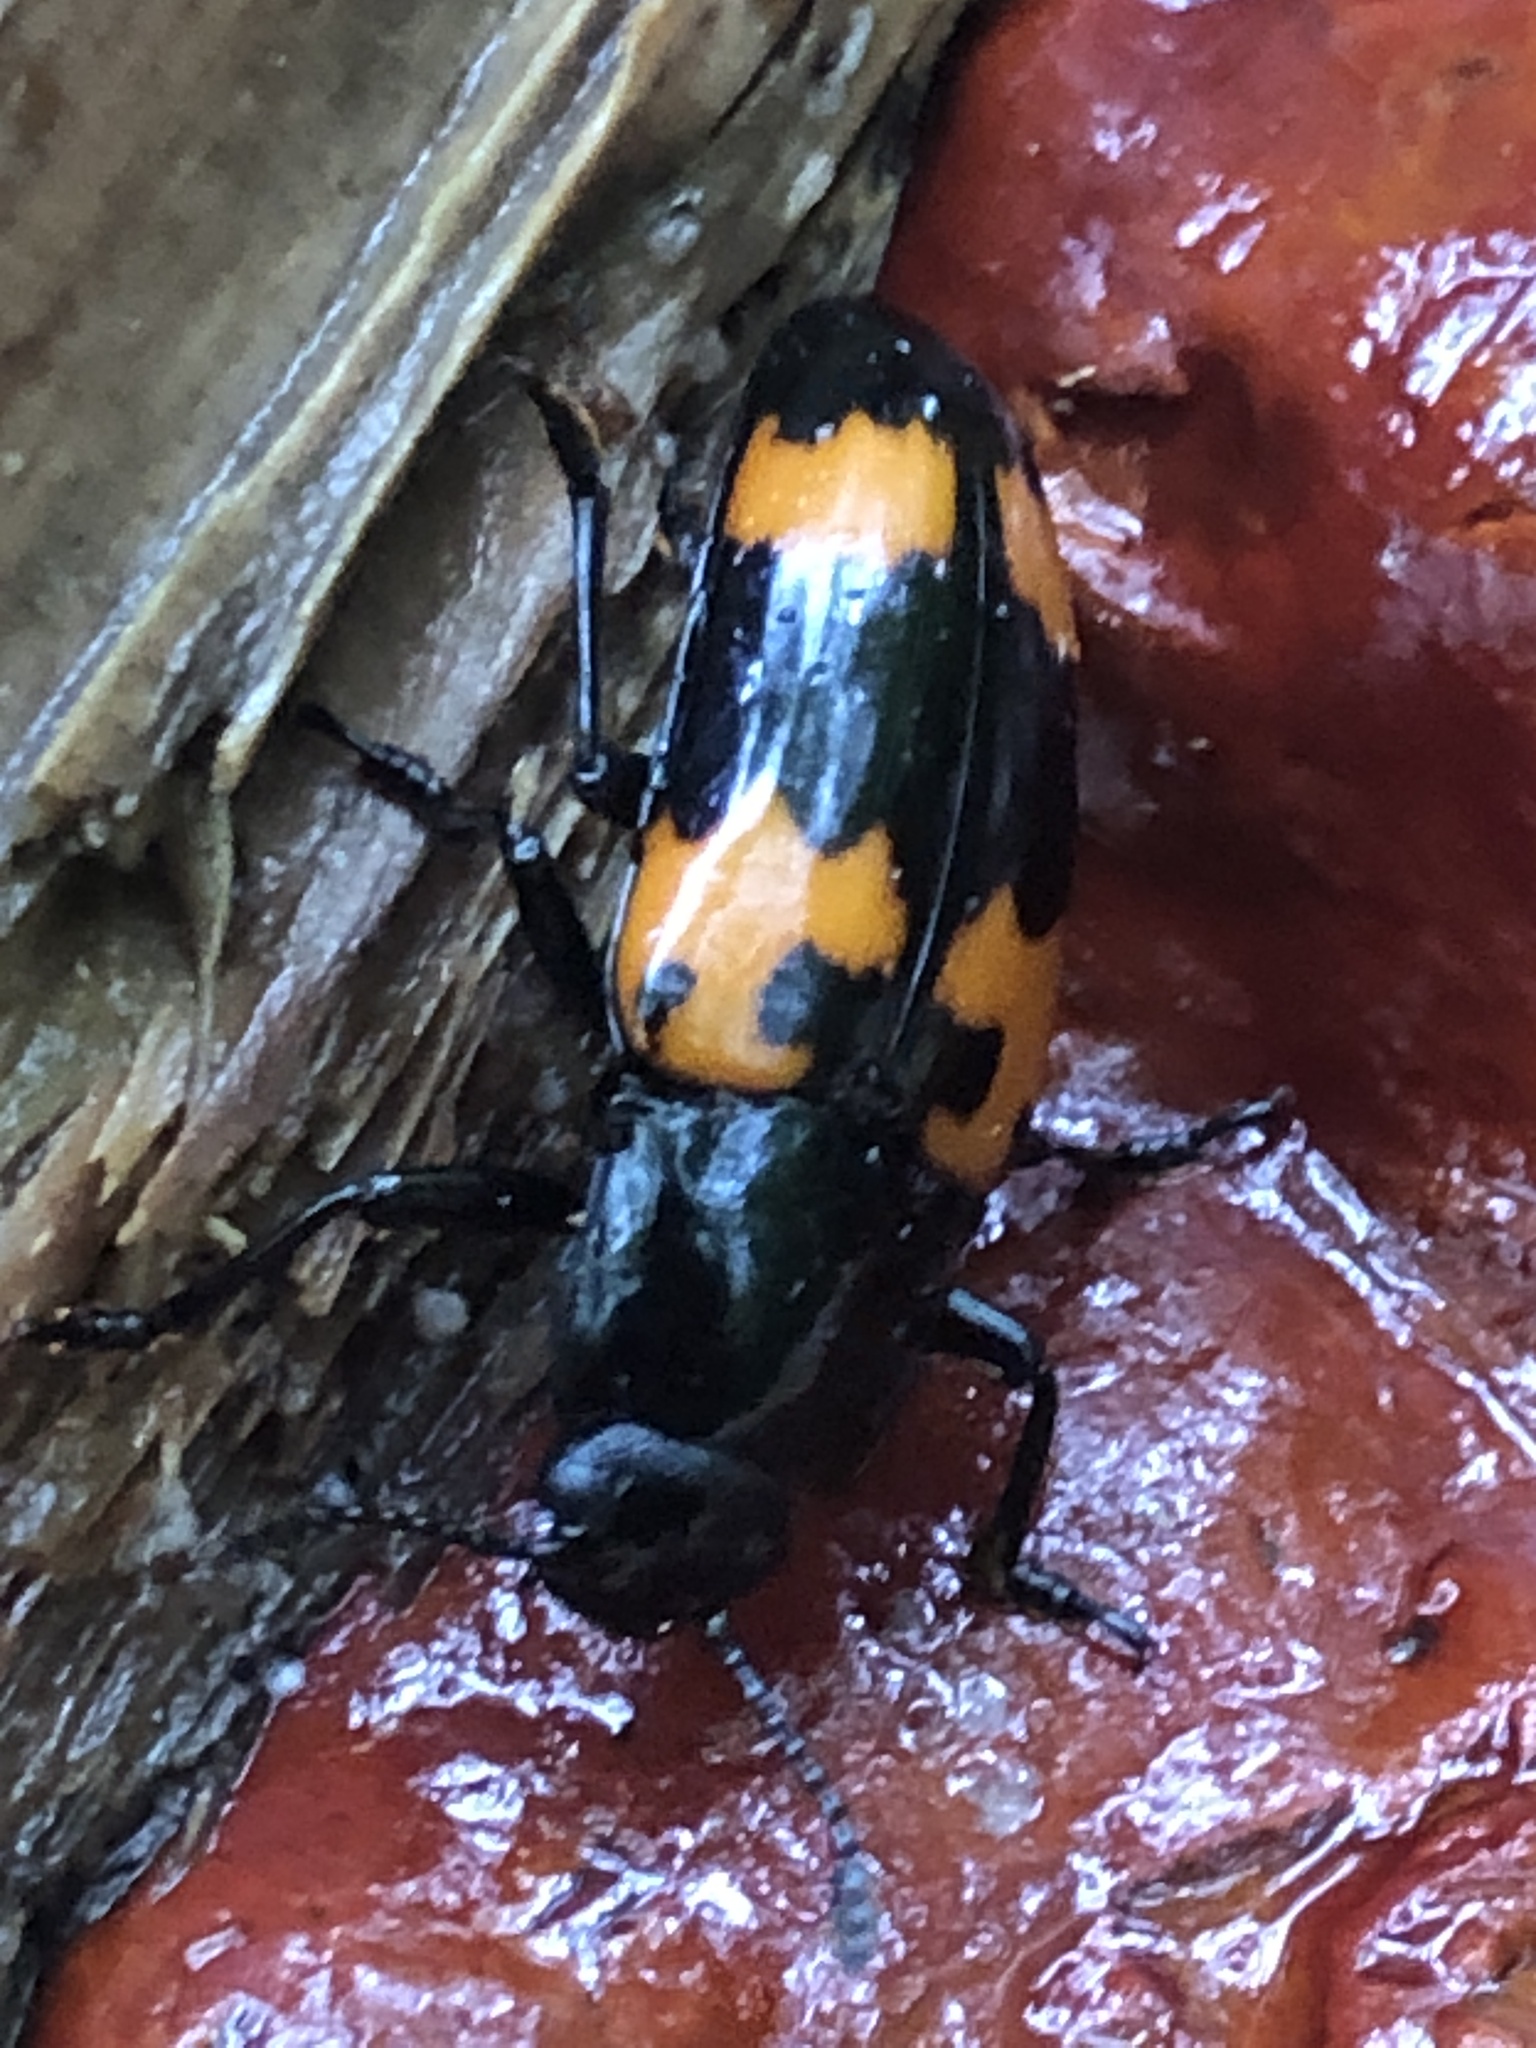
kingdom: Animalia
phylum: Arthropoda
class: Insecta
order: Coleoptera
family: Erotylidae
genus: Megalodacne
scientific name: Megalodacne heros
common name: Pleasing fungus beetle
